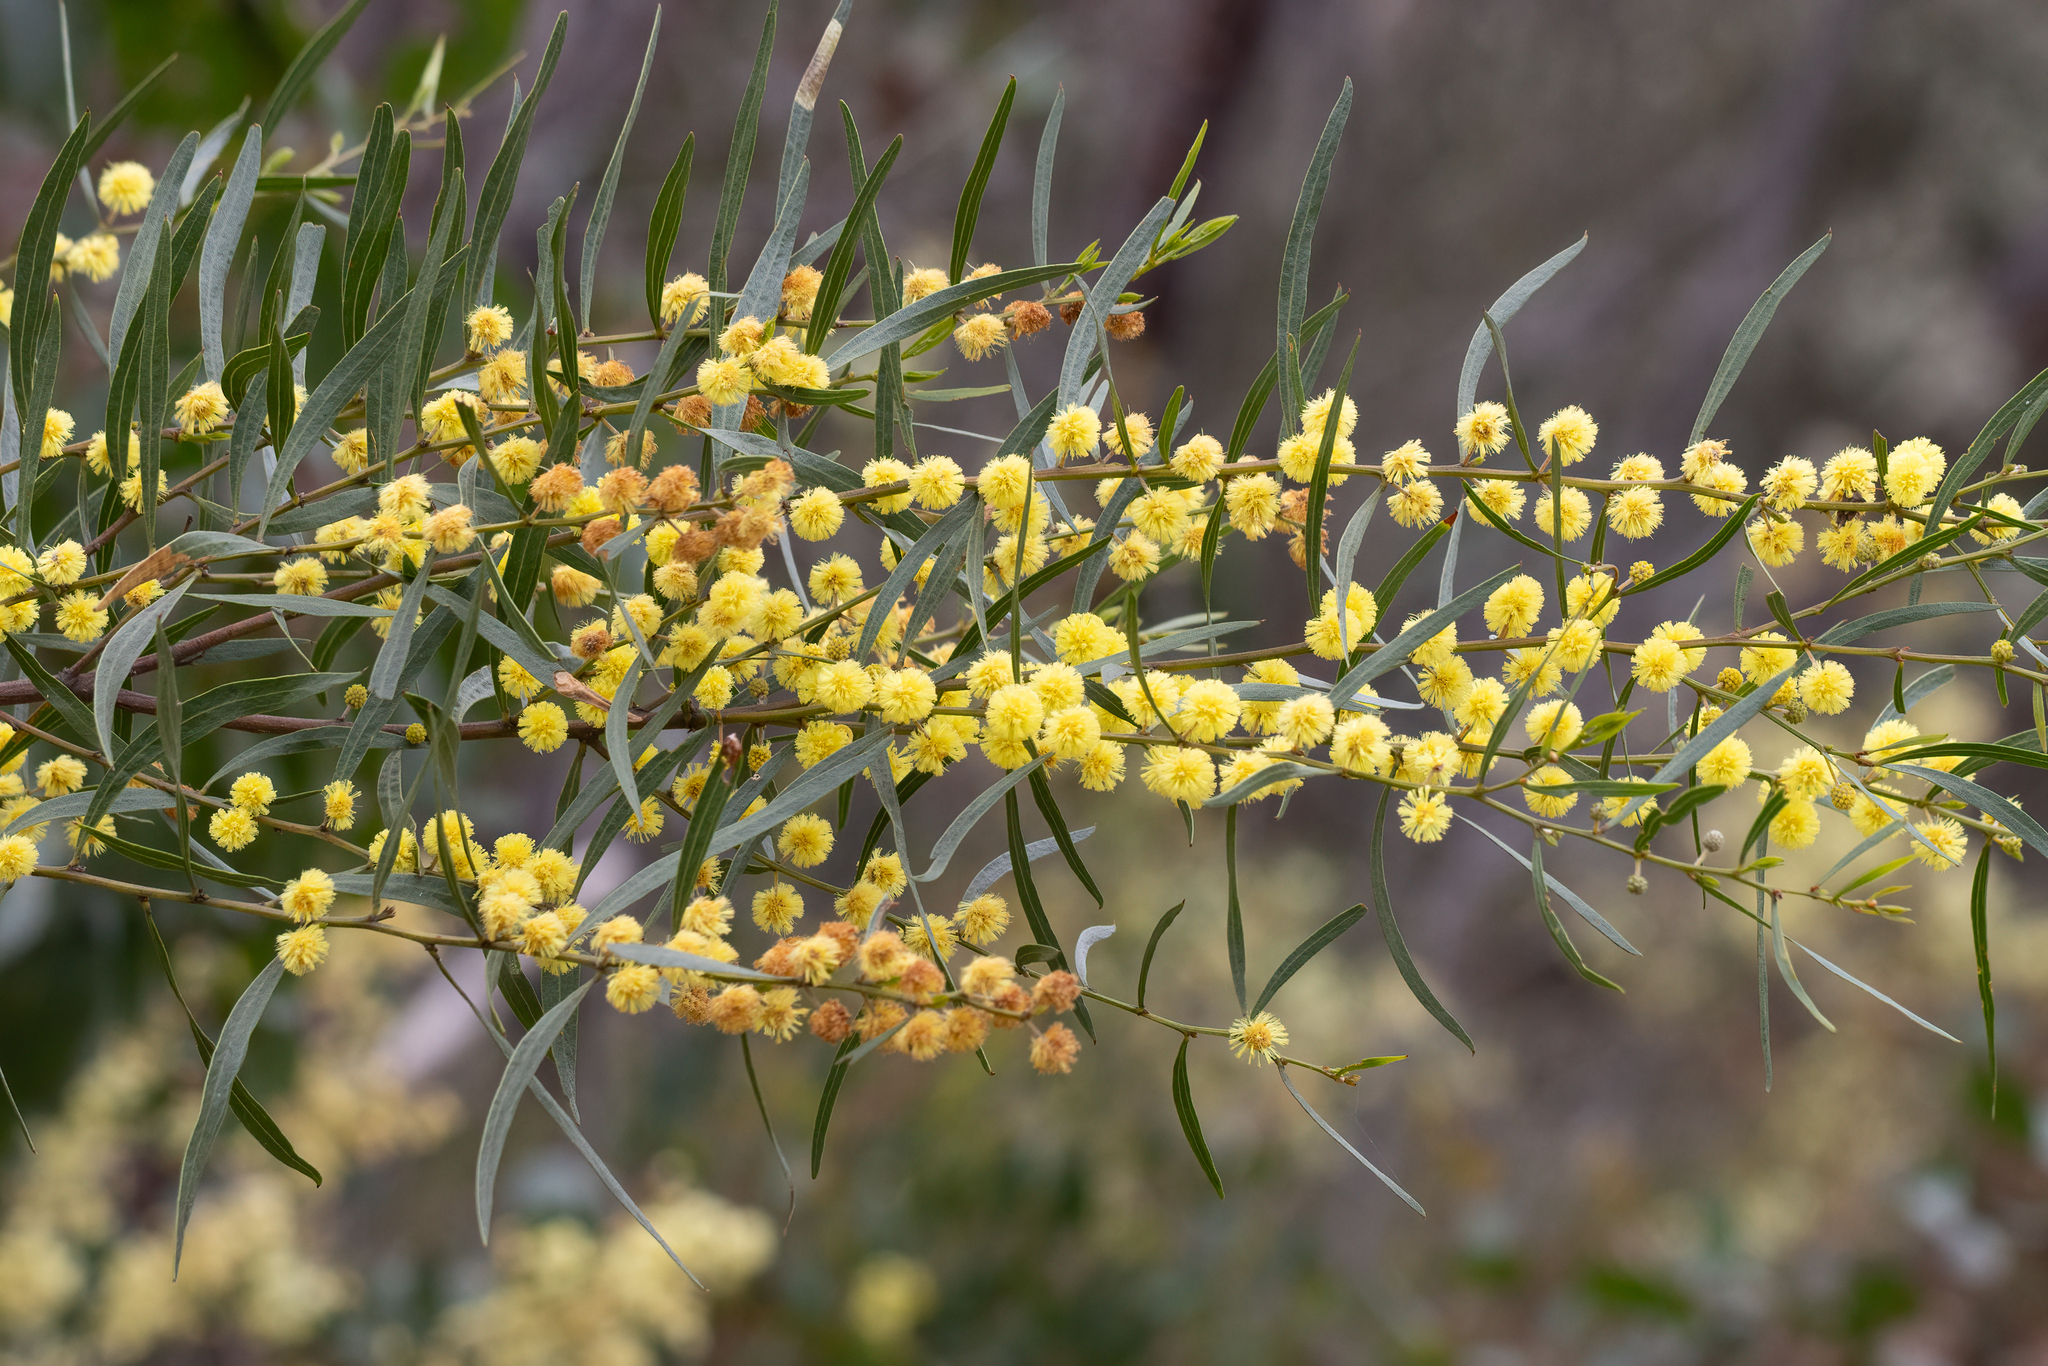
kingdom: Plantae
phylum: Tracheophyta
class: Magnoliopsida
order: Fabales
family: Fabaceae
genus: Acacia
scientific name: Acacia verniciflua
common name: Varnish wattle
